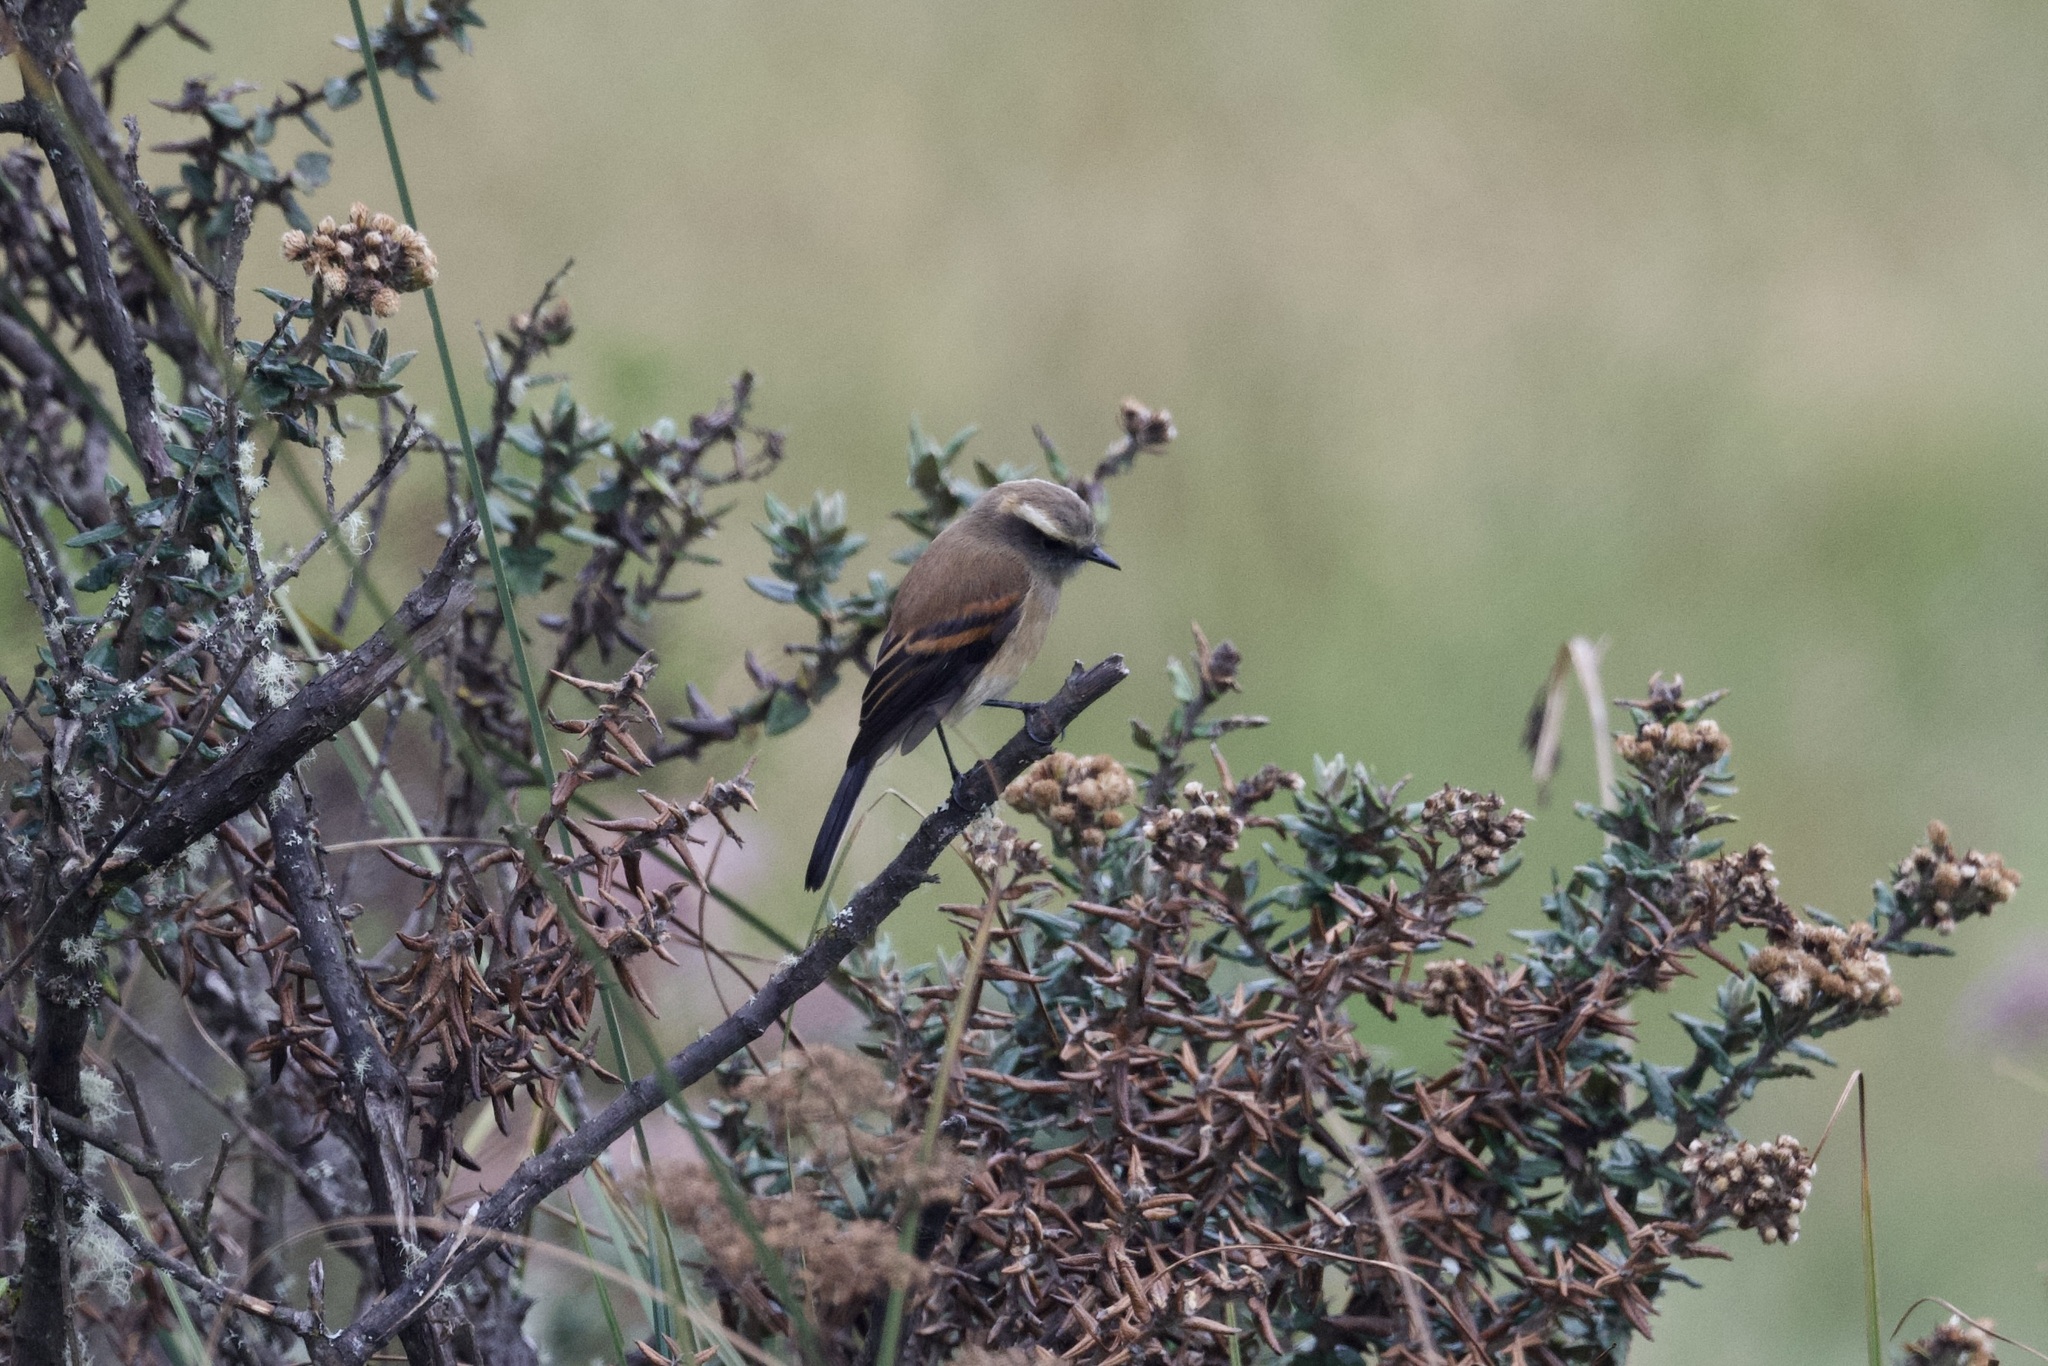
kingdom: Animalia
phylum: Chordata
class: Aves
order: Passeriformes
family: Tyrannidae
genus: Ochthoeca
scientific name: Ochthoeca fumicolor
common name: Brown-backed chat-tyrant
